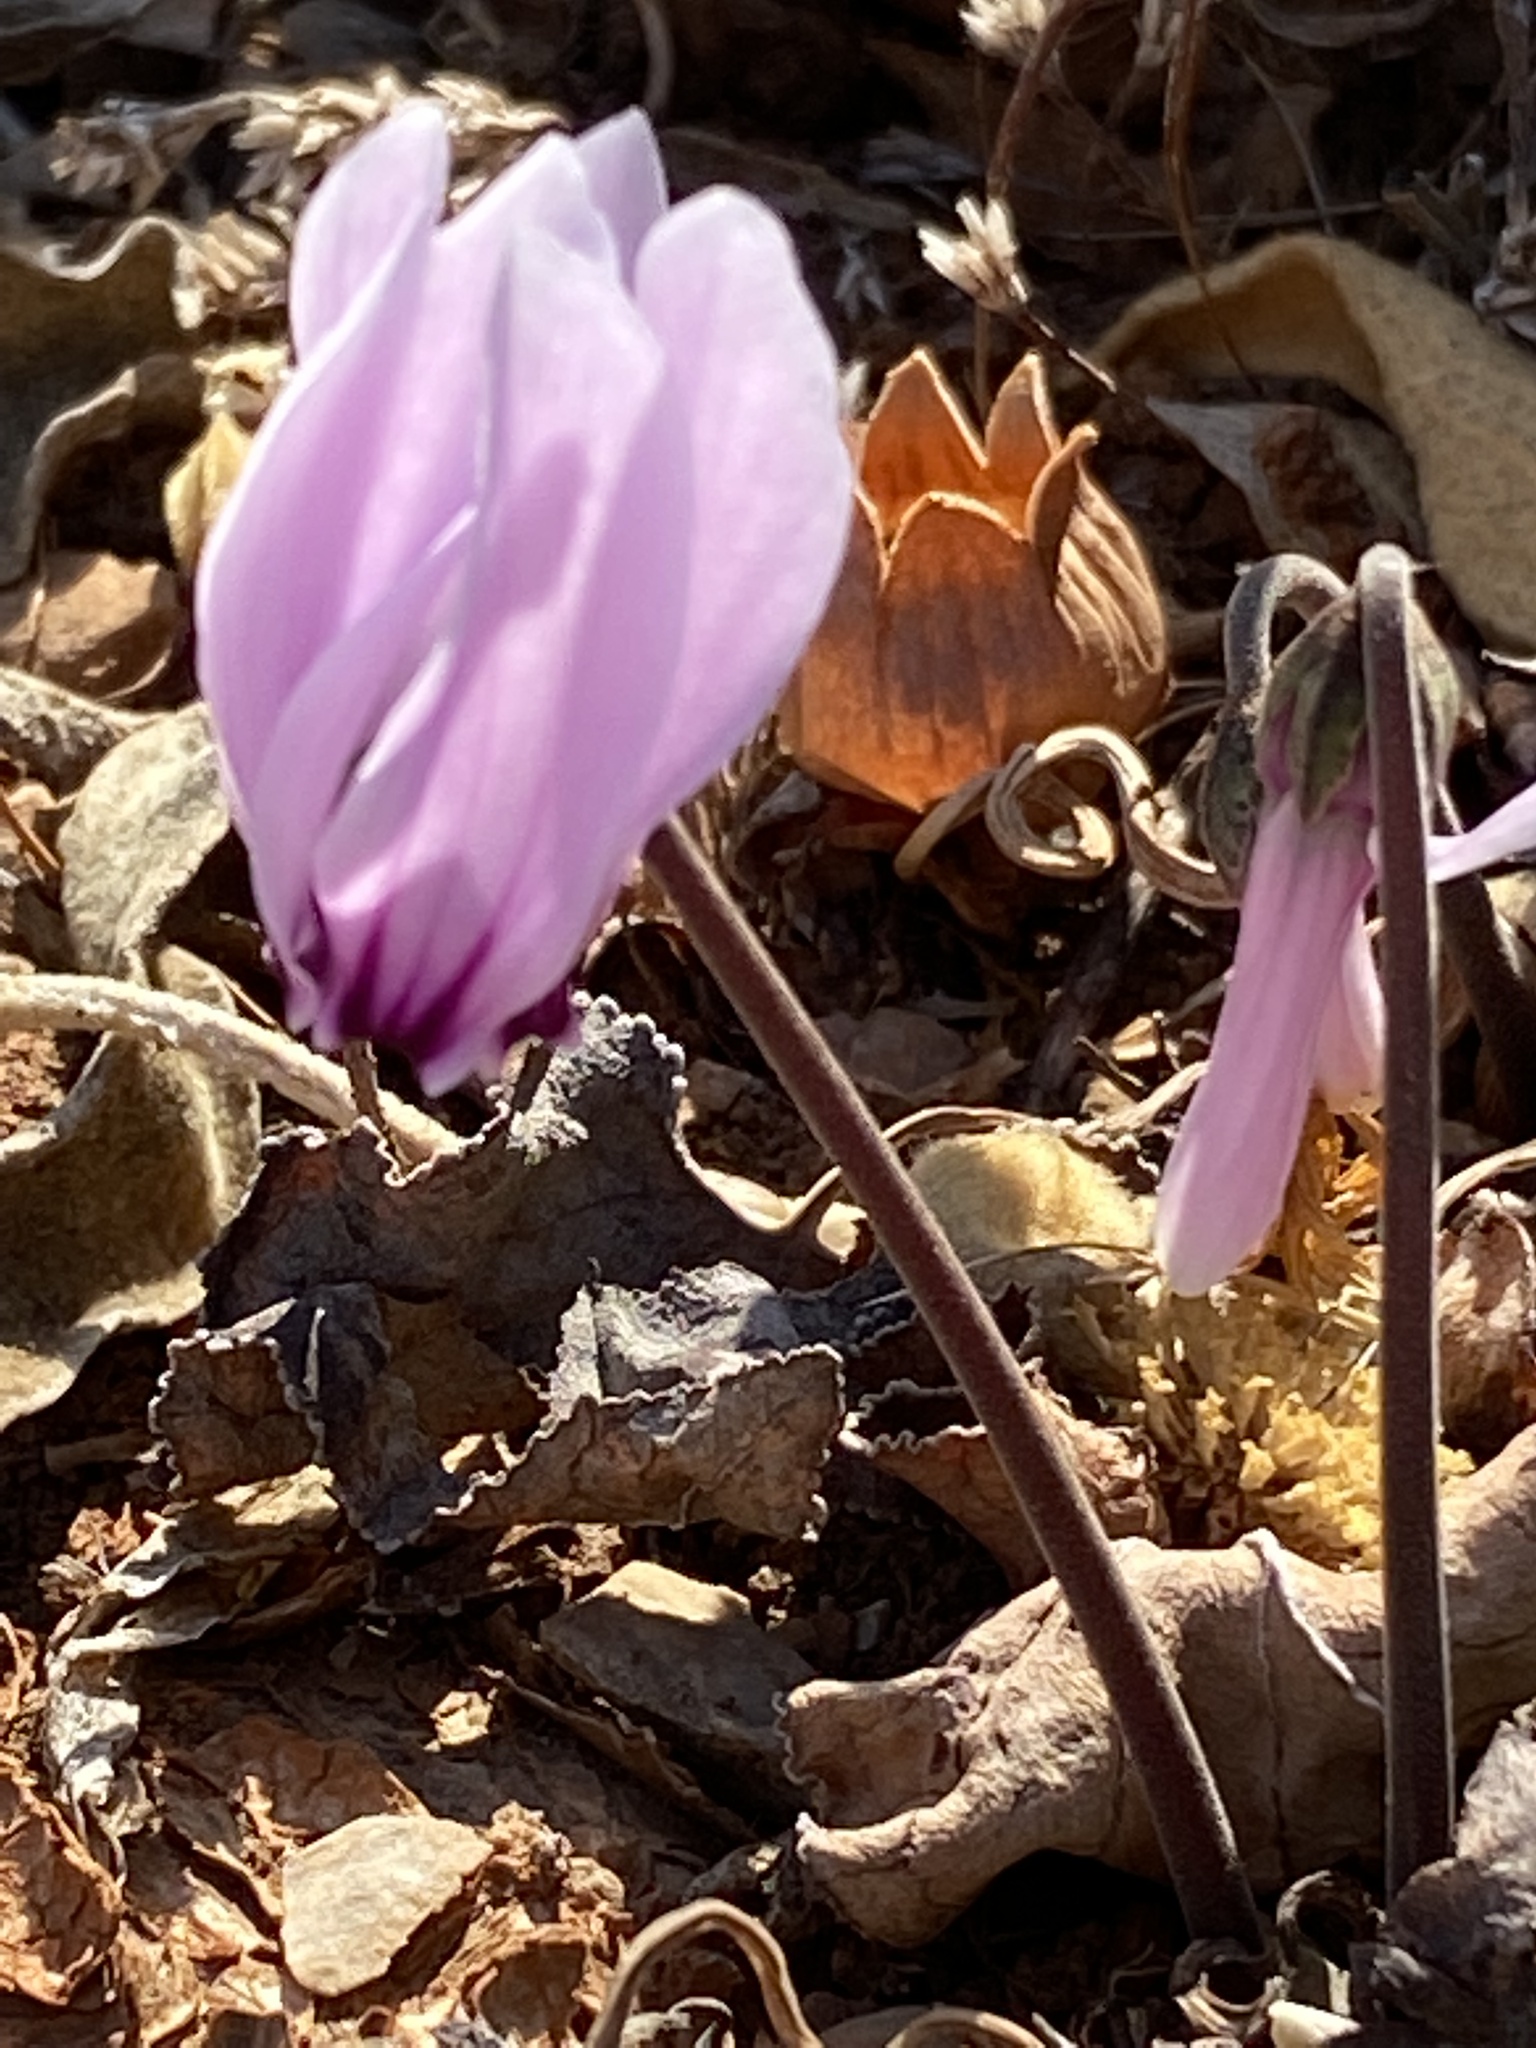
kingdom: Plantae
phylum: Tracheophyta
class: Magnoliopsida
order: Ericales
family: Primulaceae
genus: Cyclamen
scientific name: Cyclamen graecum
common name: Greek cyclamen
